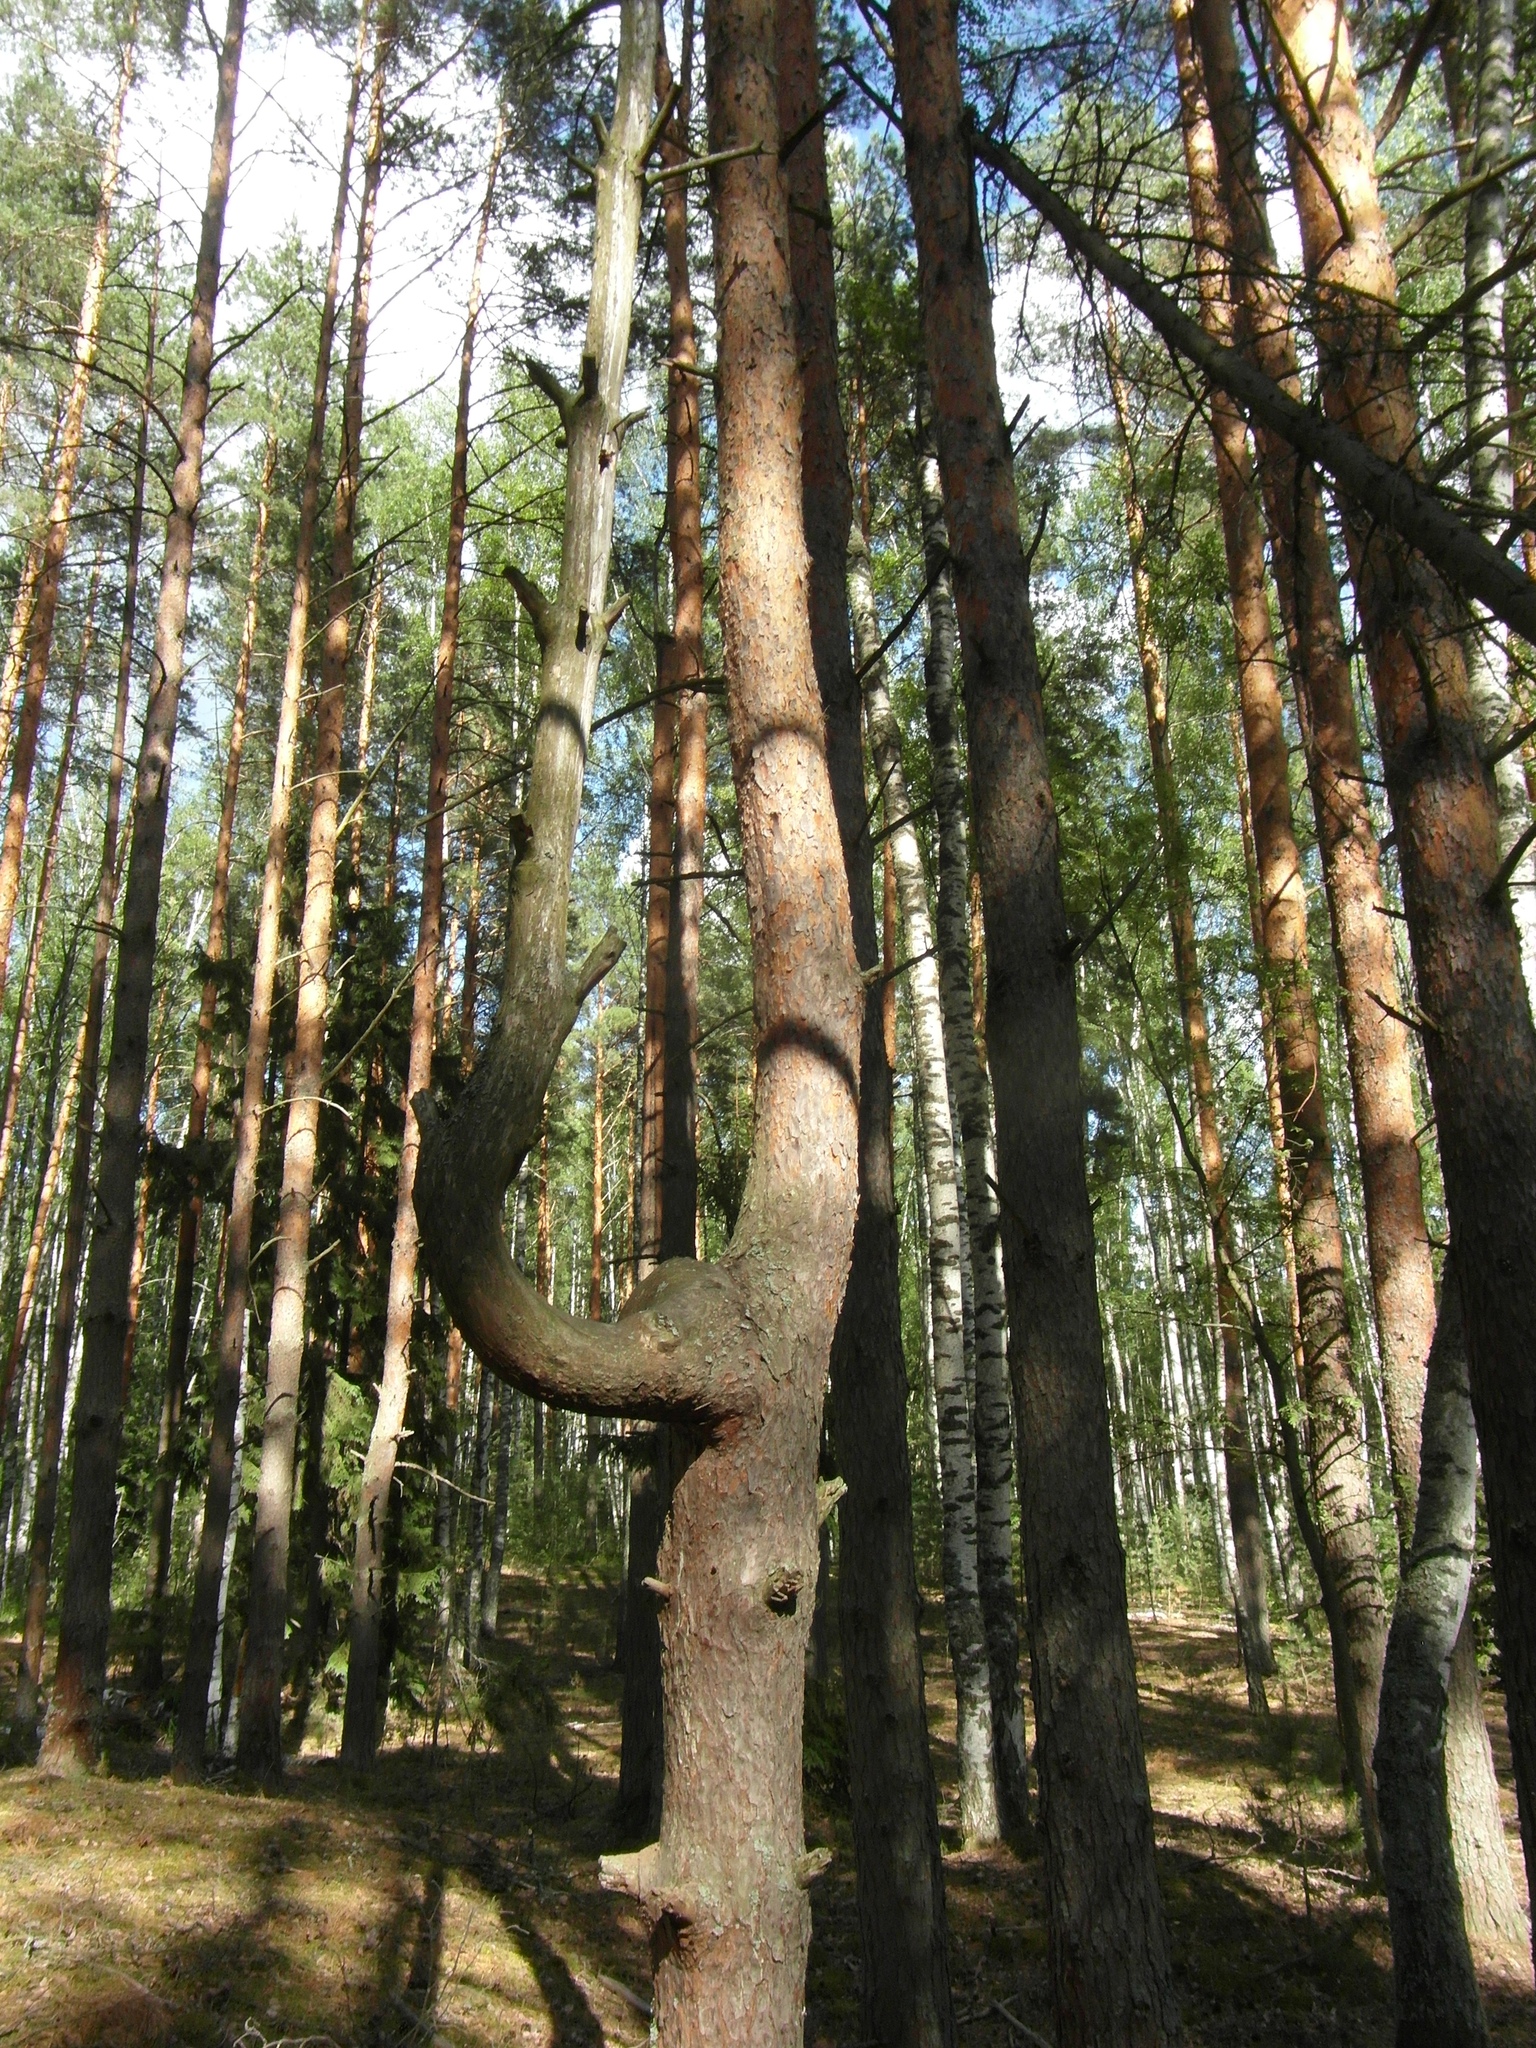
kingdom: Plantae
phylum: Tracheophyta
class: Pinopsida
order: Pinales
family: Pinaceae
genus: Pinus
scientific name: Pinus sylvestris
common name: Scots pine
